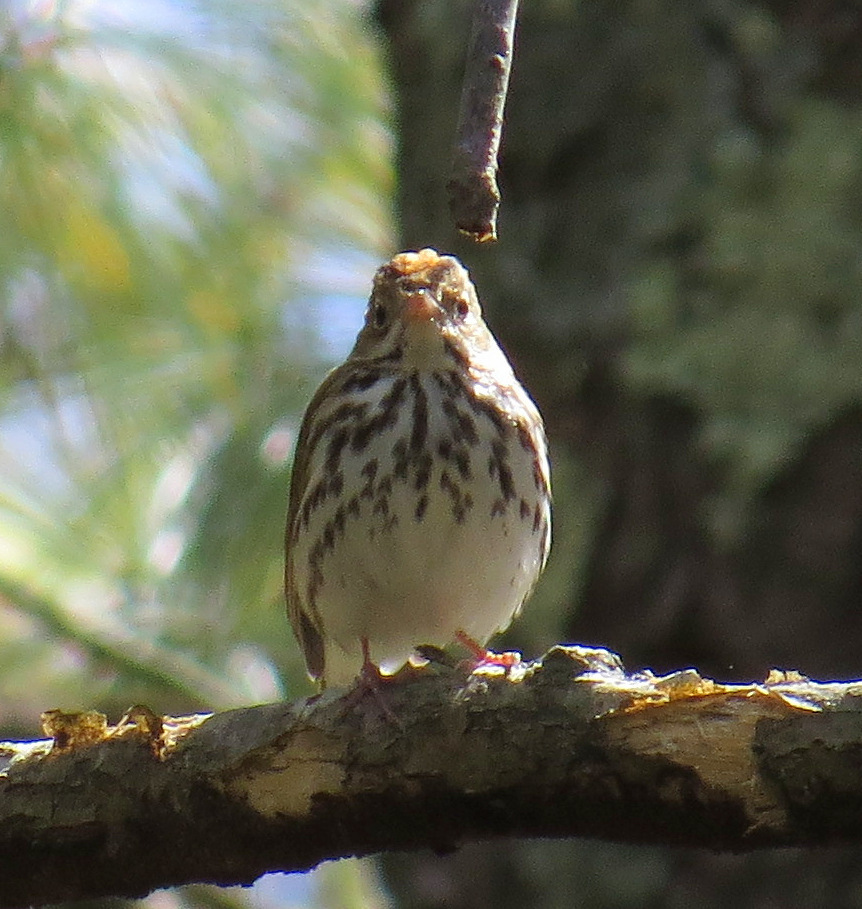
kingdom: Animalia
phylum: Chordata
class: Aves
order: Passeriformes
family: Parulidae
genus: Seiurus
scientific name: Seiurus aurocapilla
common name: Ovenbird
